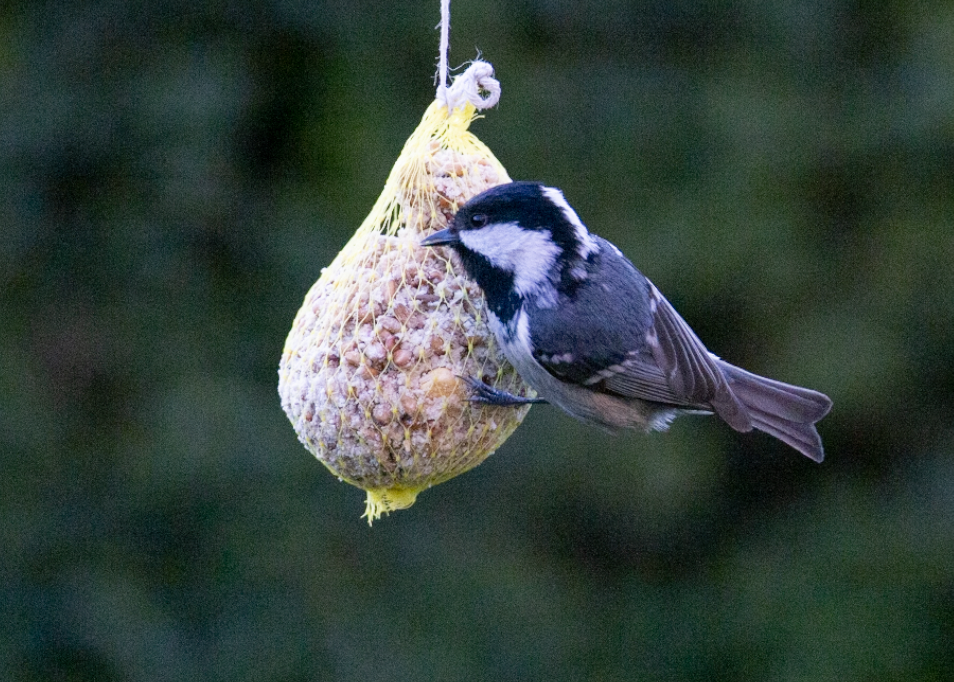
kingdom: Animalia
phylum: Chordata
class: Aves
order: Passeriformes
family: Paridae
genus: Periparus
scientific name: Periparus ater
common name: Coal tit
